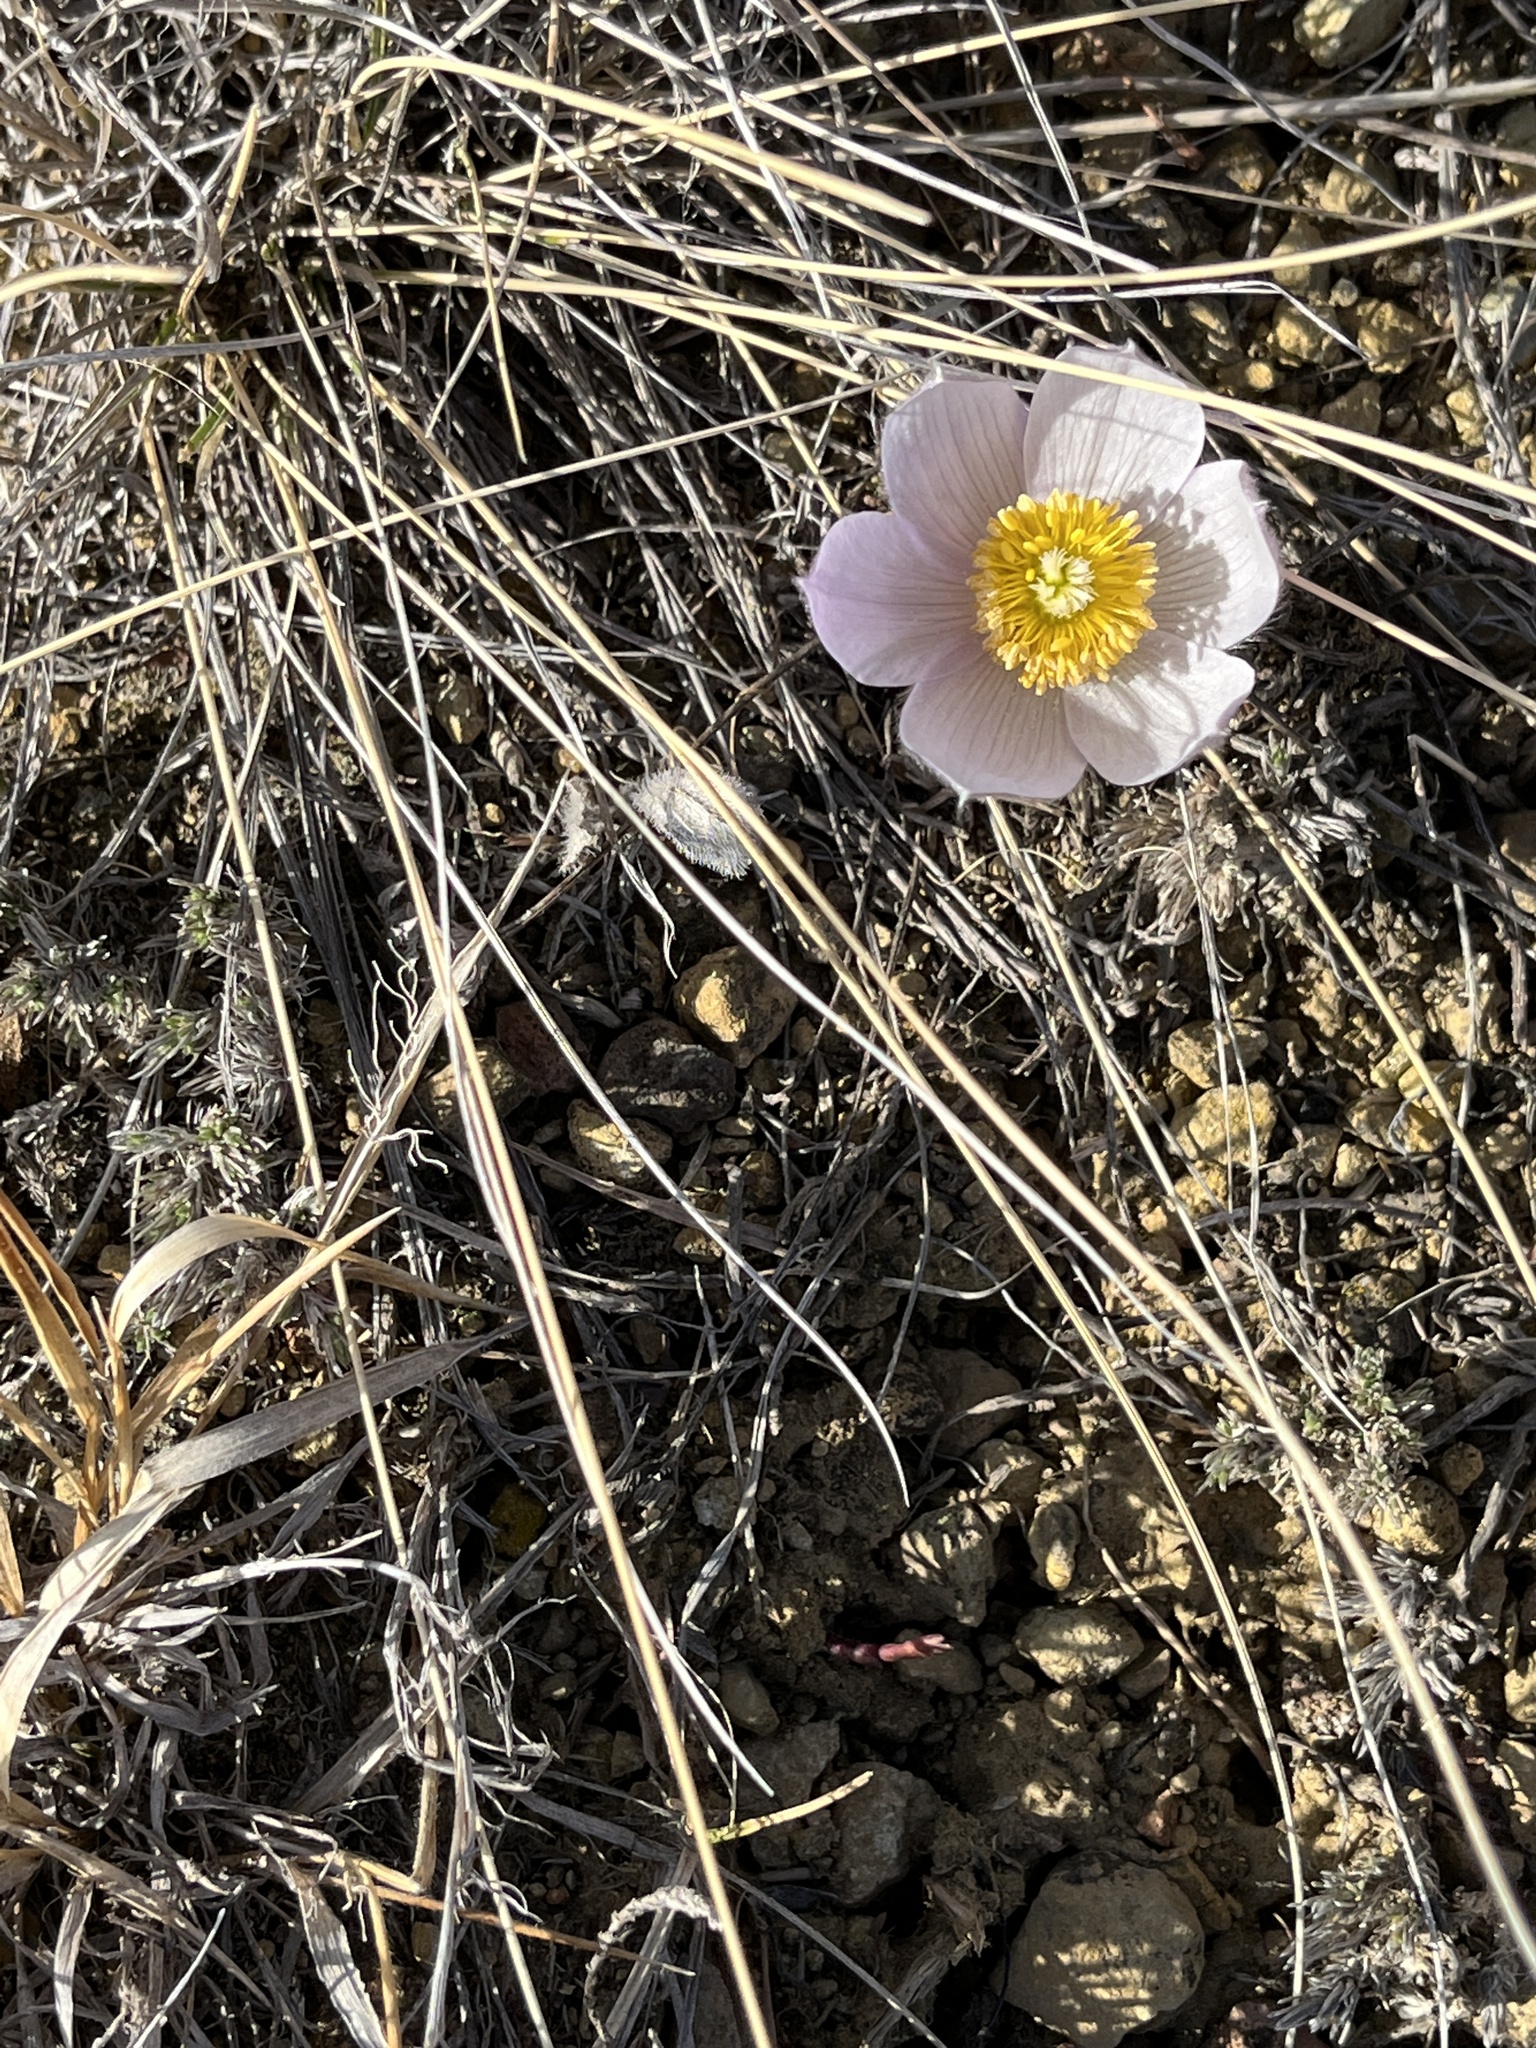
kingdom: Plantae
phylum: Tracheophyta
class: Magnoliopsida
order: Ranunculales
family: Ranunculaceae
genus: Pulsatilla
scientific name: Pulsatilla nuttalliana
